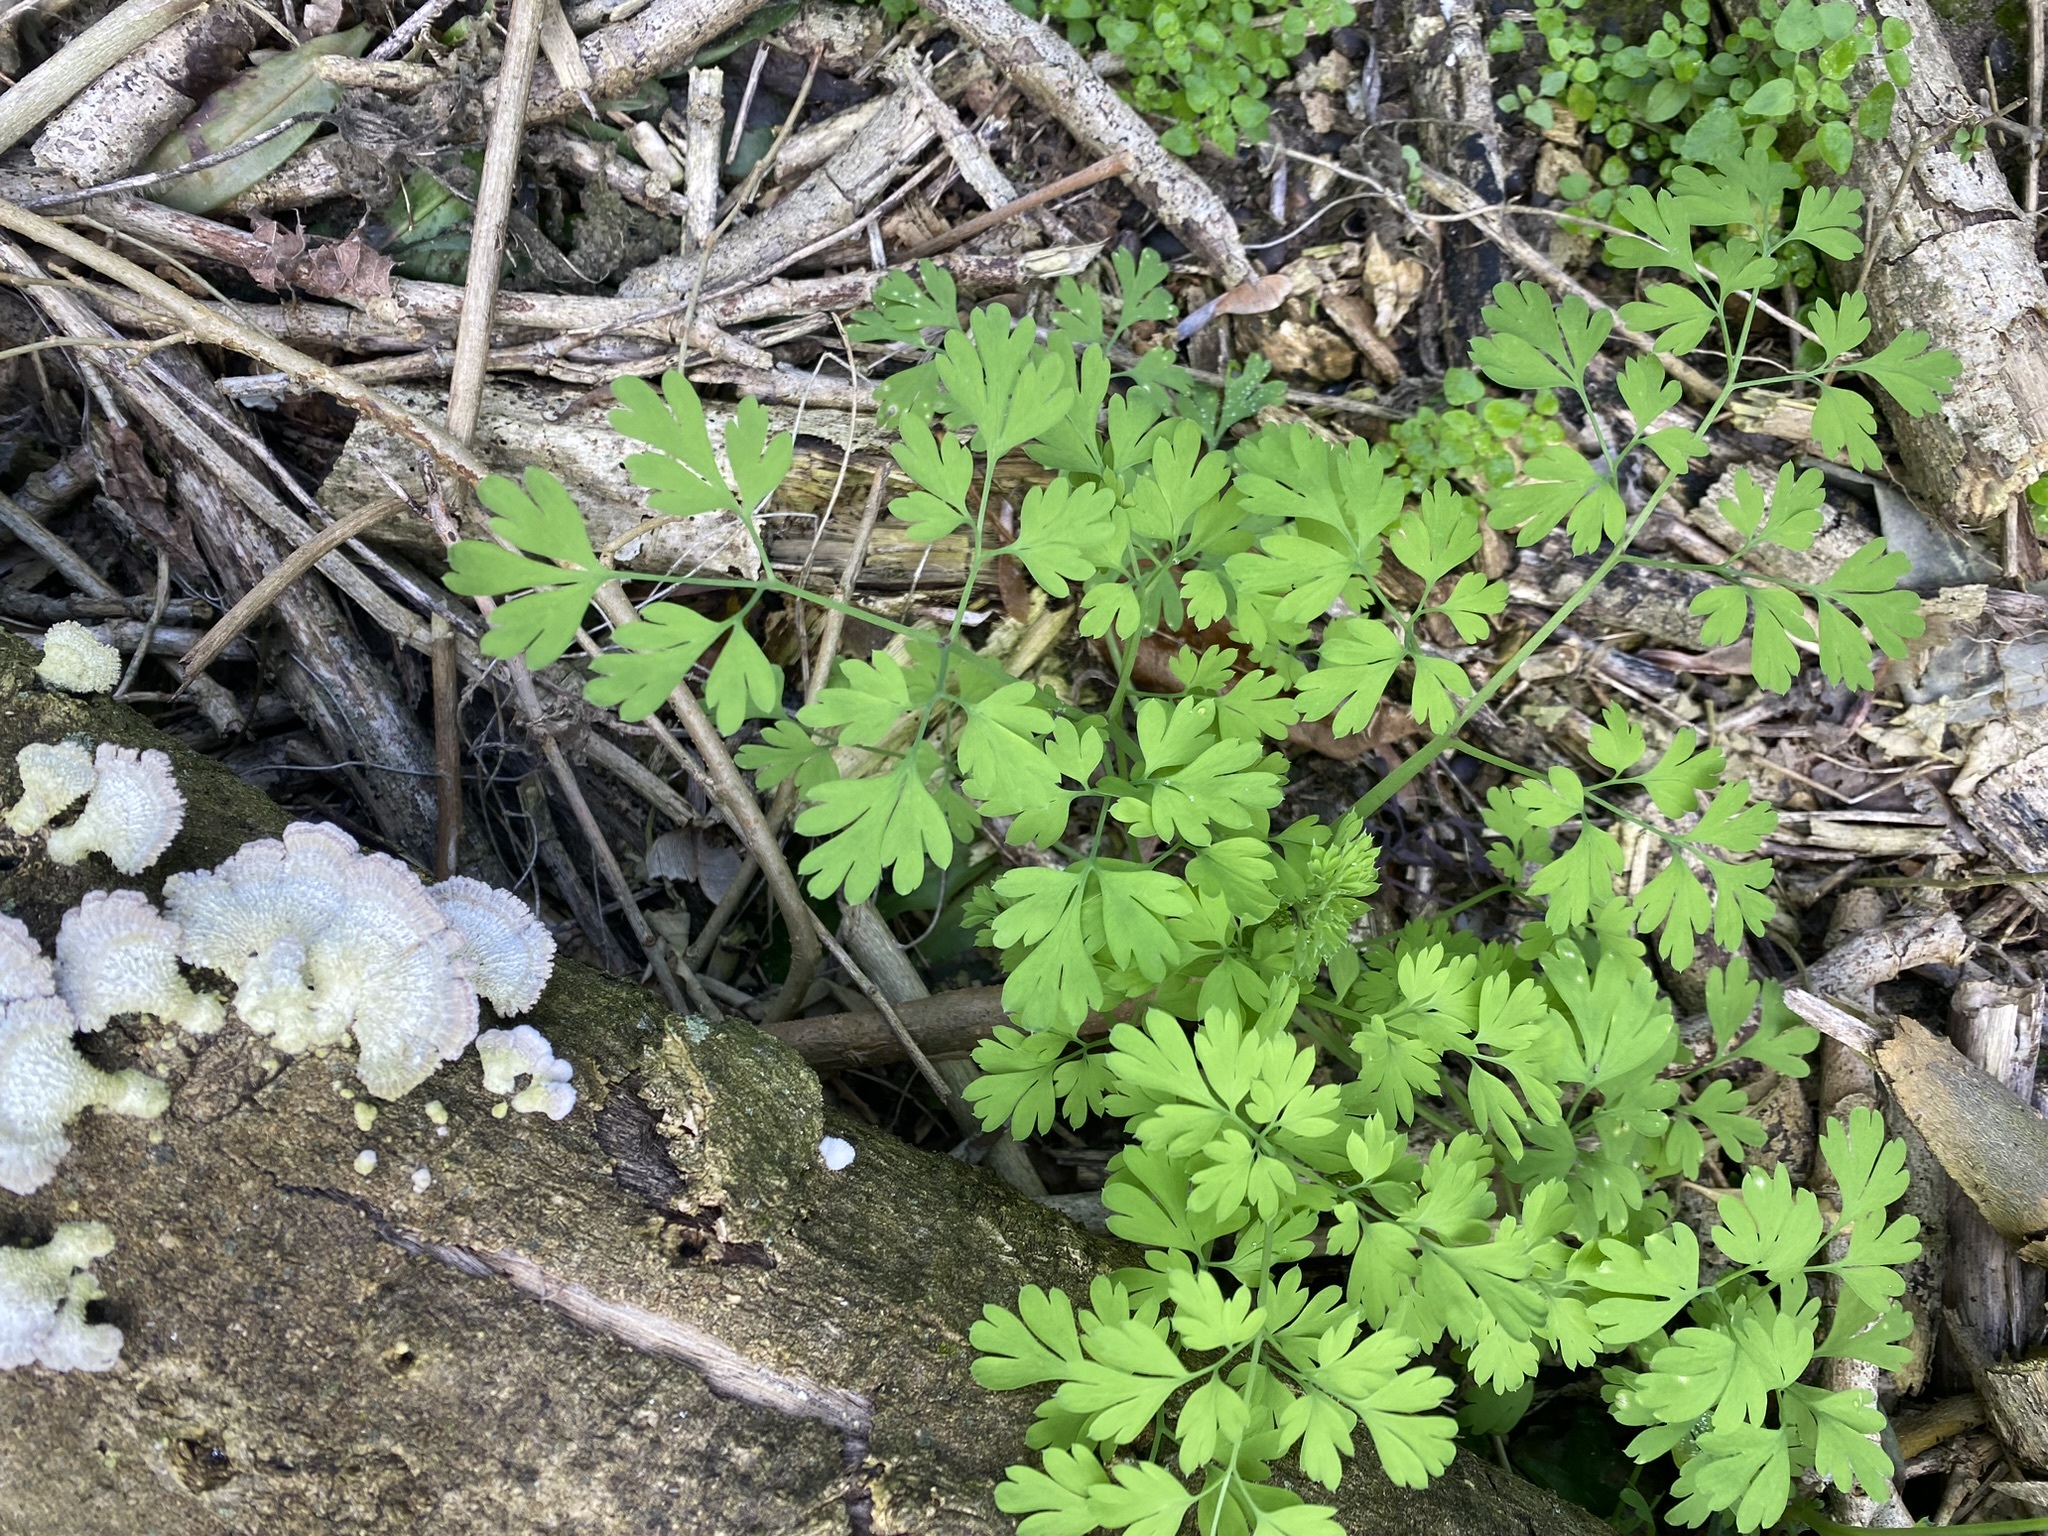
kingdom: Plantae
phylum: Tracheophyta
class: Magnoliopsida
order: Ranunculales
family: Papaveraceae
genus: Fumaria
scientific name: Fumaria capreolata
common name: White ramping-fumitory
